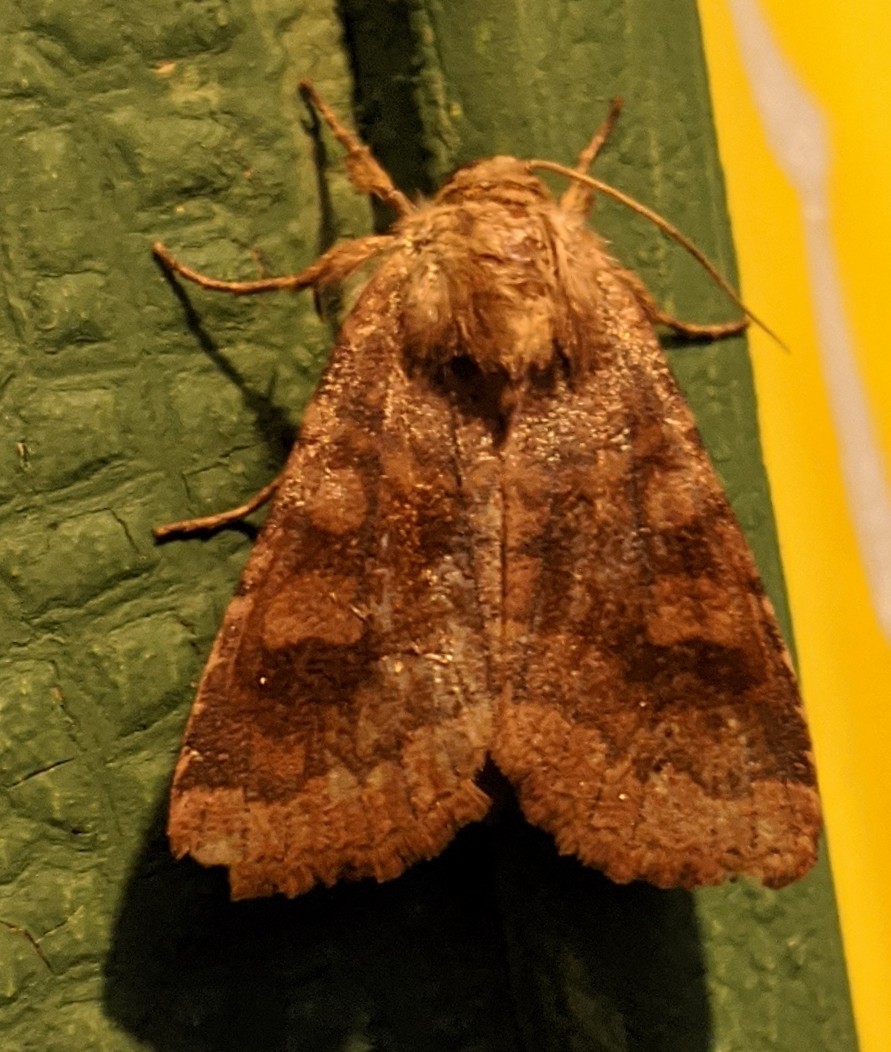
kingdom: Animalia
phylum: Arthropoda
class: Insecta
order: Lepidoptera
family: Noctuidae
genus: Nephelodes
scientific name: Nephelodes minians
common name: Bronzed cutworm
